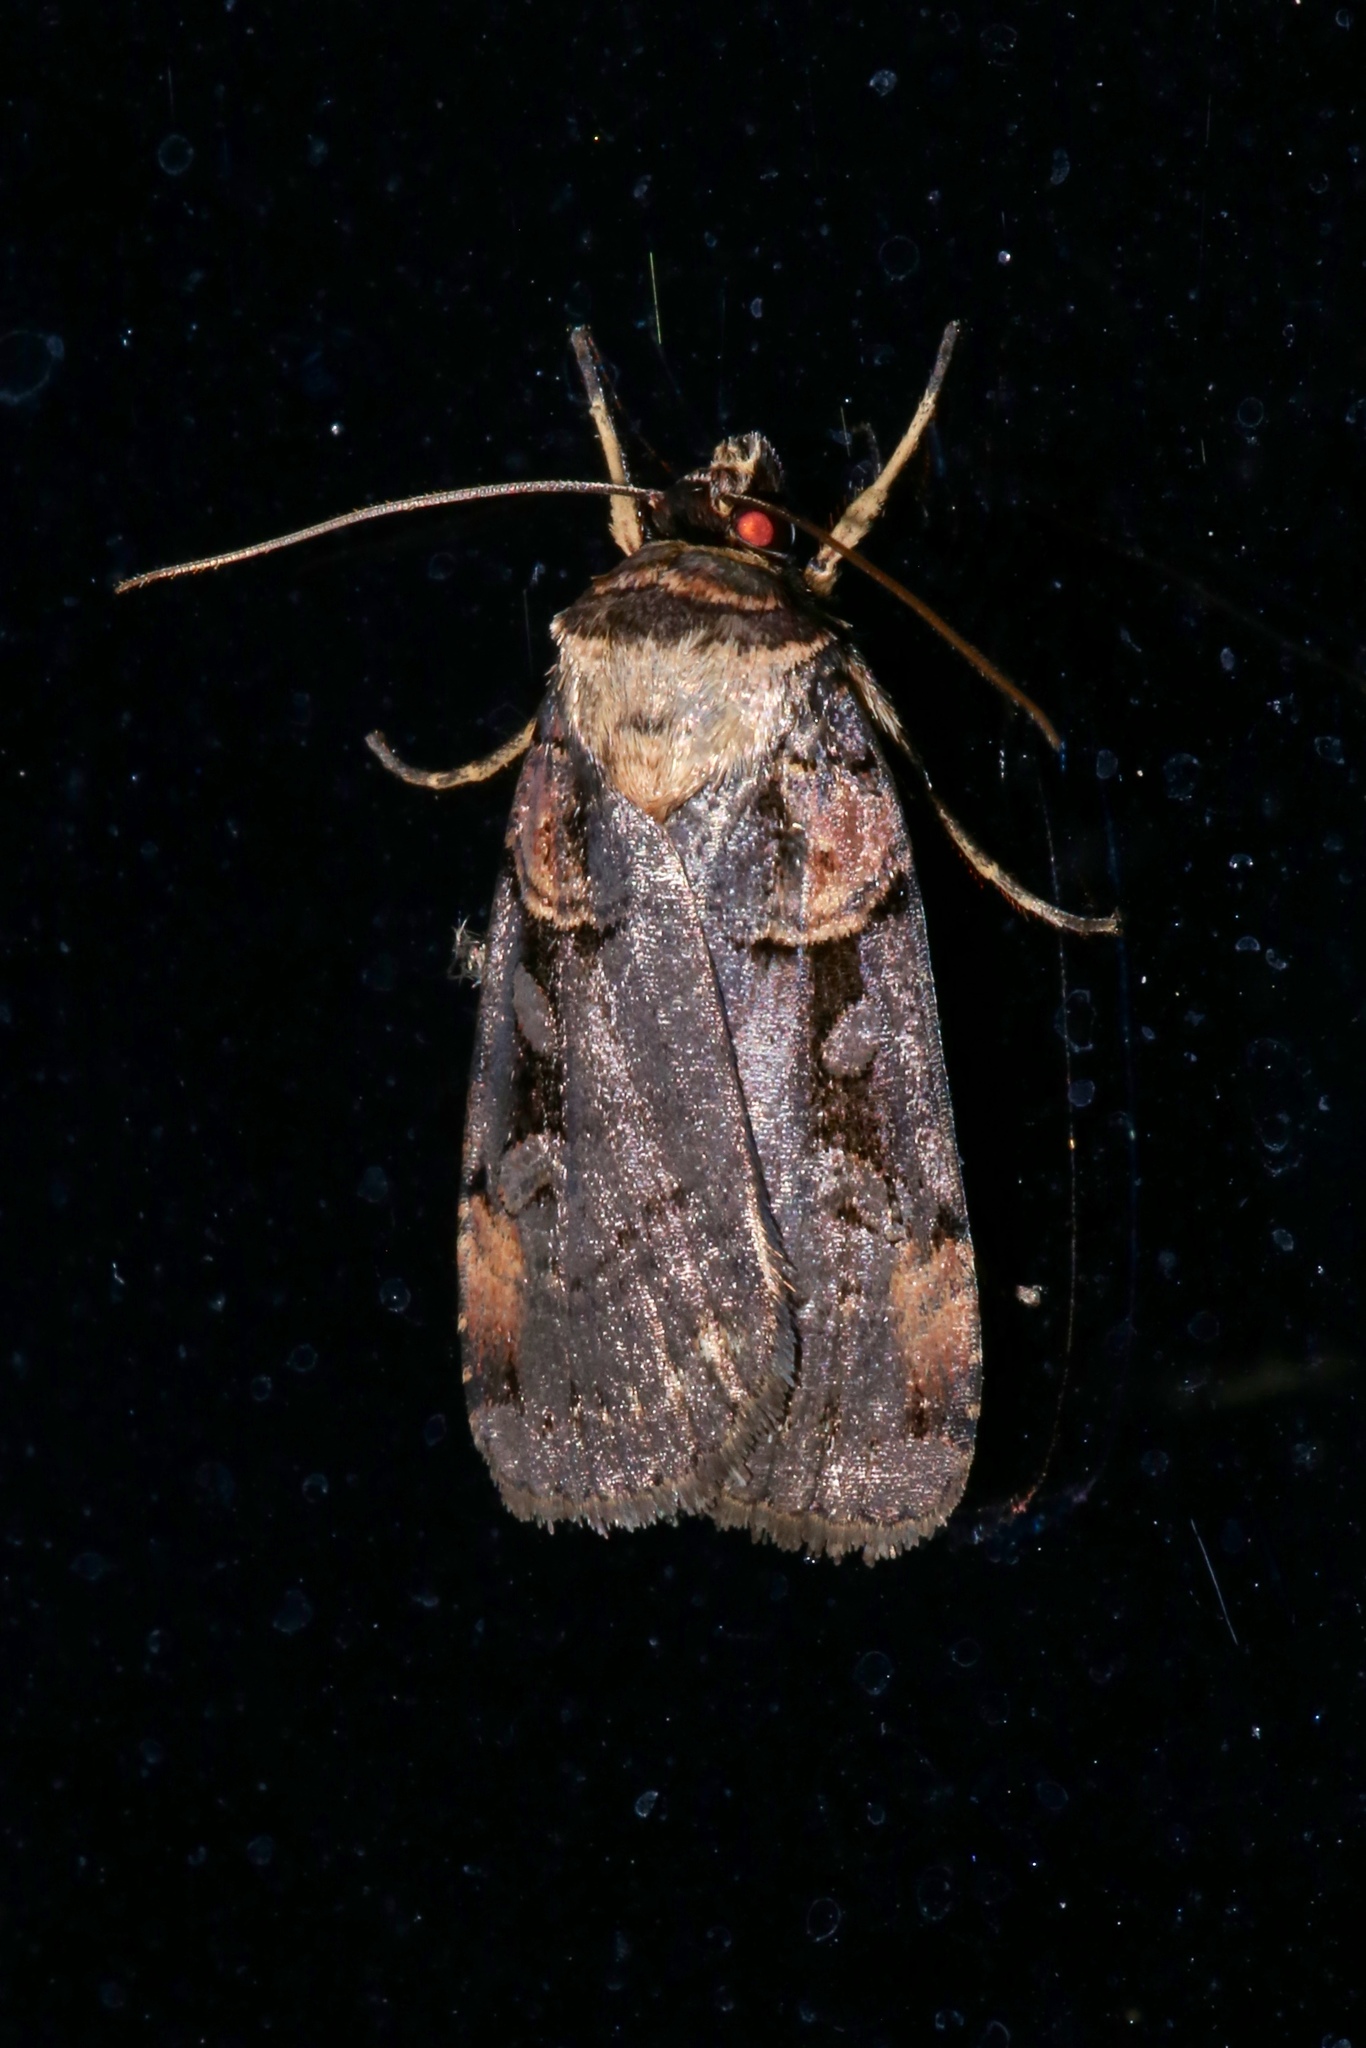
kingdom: Animalia
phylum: Arthropoda
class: Insecta
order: Lepidoptera
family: Noctuidae
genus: Pseudohermonassa
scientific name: Pseudohermonassa bicarnea
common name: Pink spotted dart
